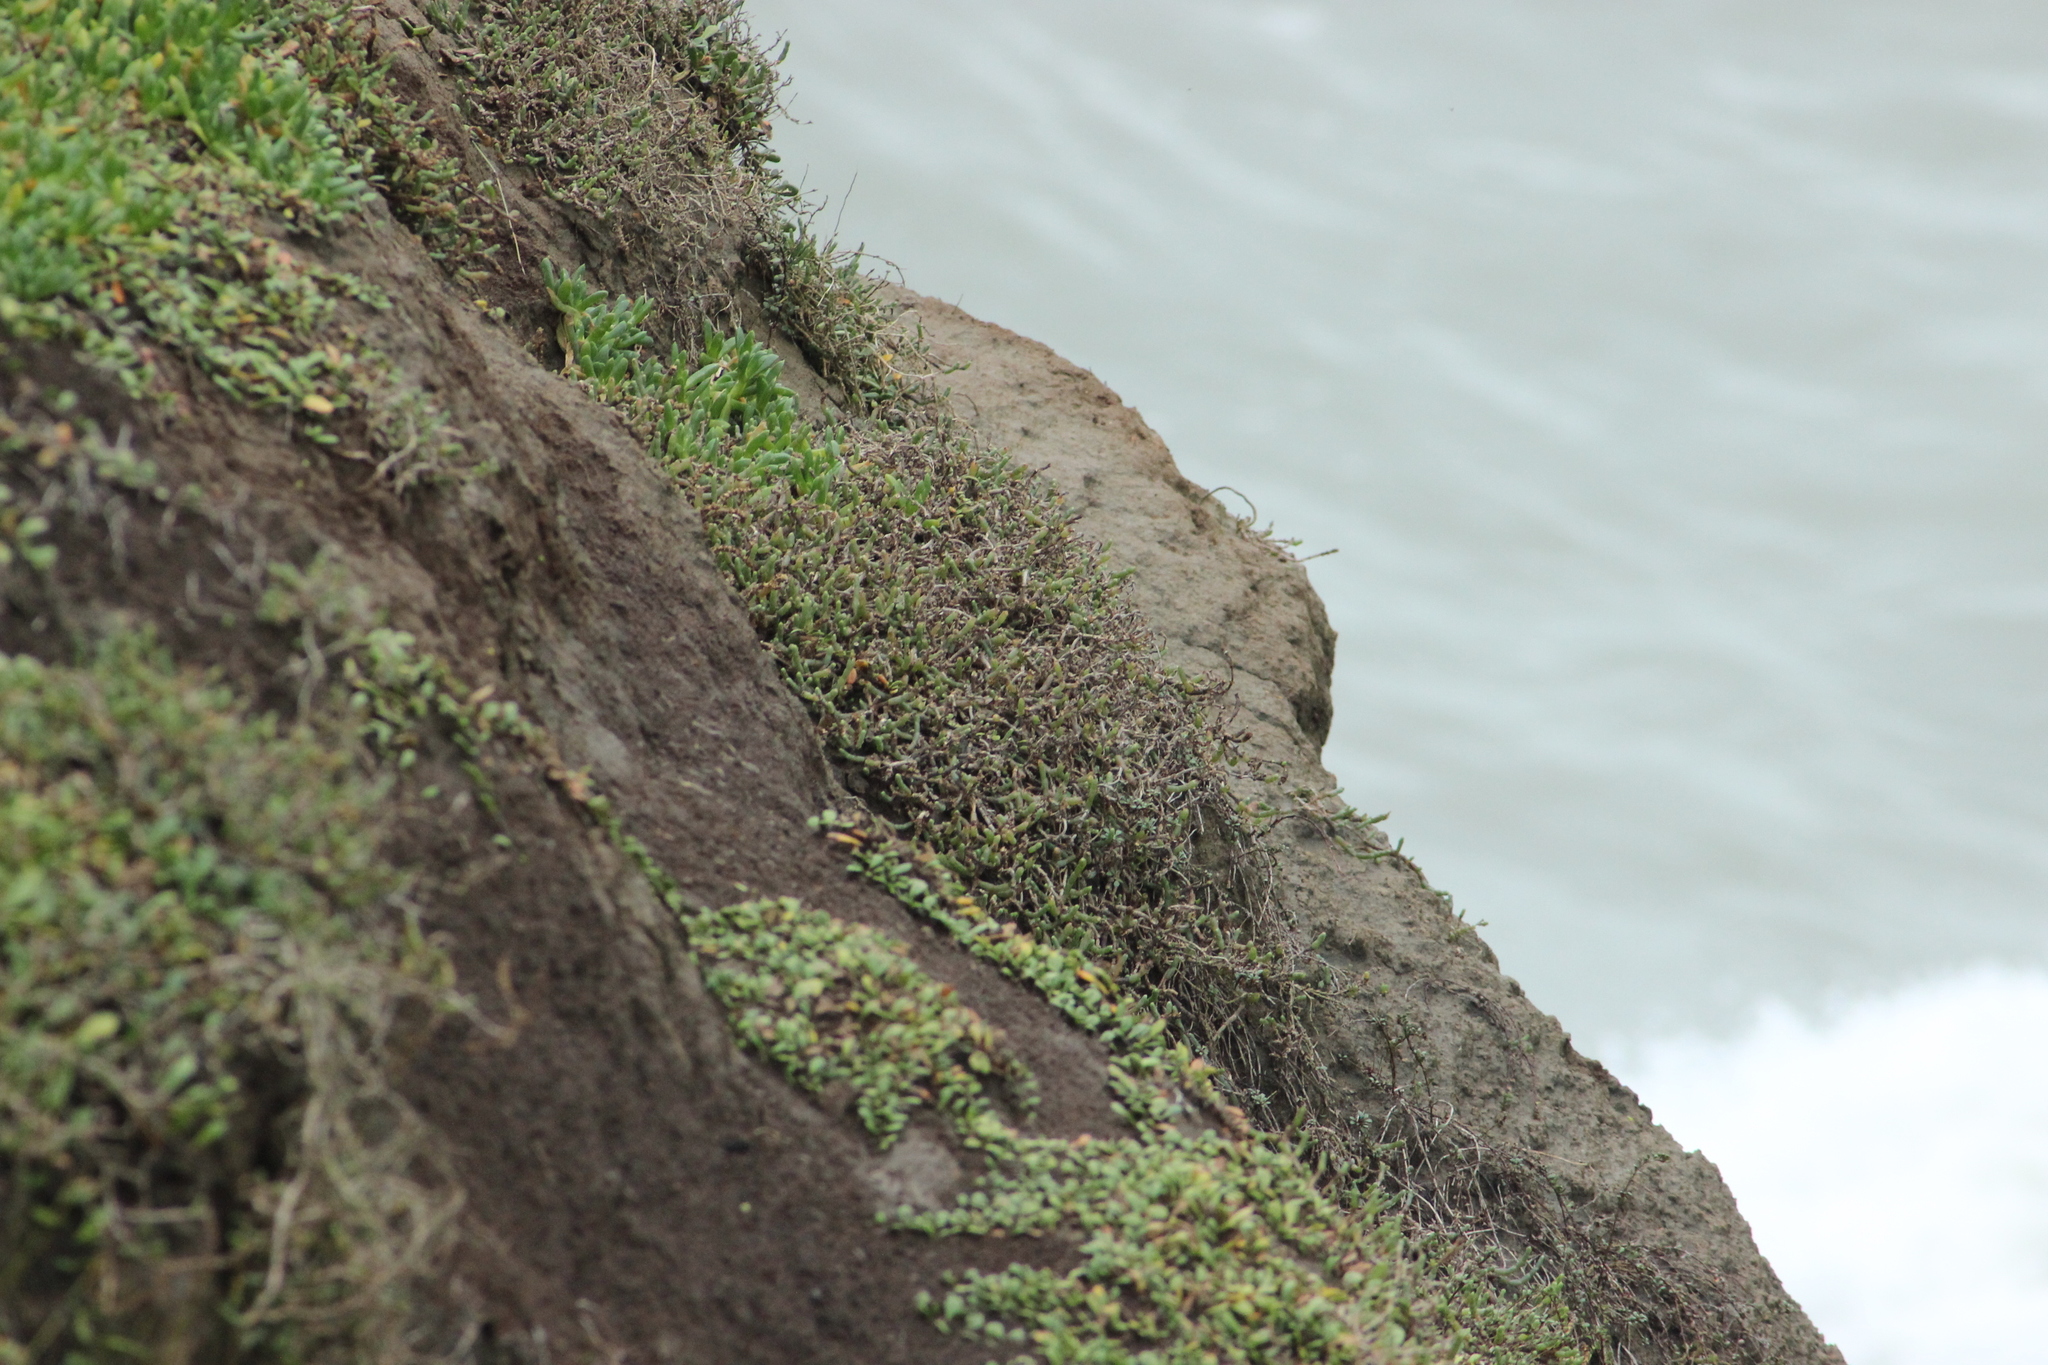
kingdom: Plantae
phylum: Tracheophyta
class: Magnoliopsida
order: Caryophyllales
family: Amaranthaceae
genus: Salicornia
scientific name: Salicornia quinqueflora
